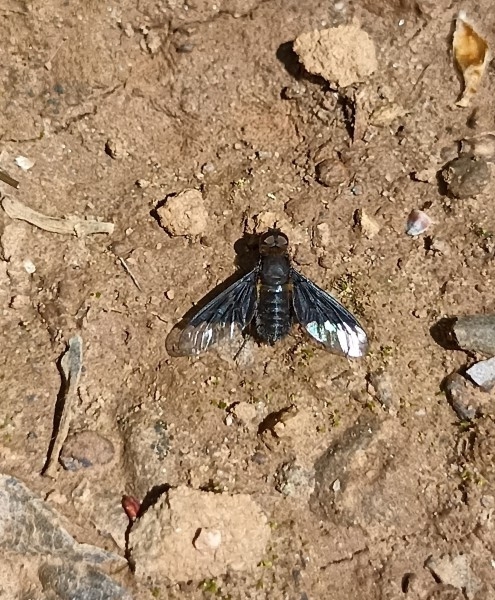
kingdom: Animalia
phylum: Arthropoda
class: Insecta
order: Diptera
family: Bombyliidae
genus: Hemipenthes
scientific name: Hemipenthes morio
